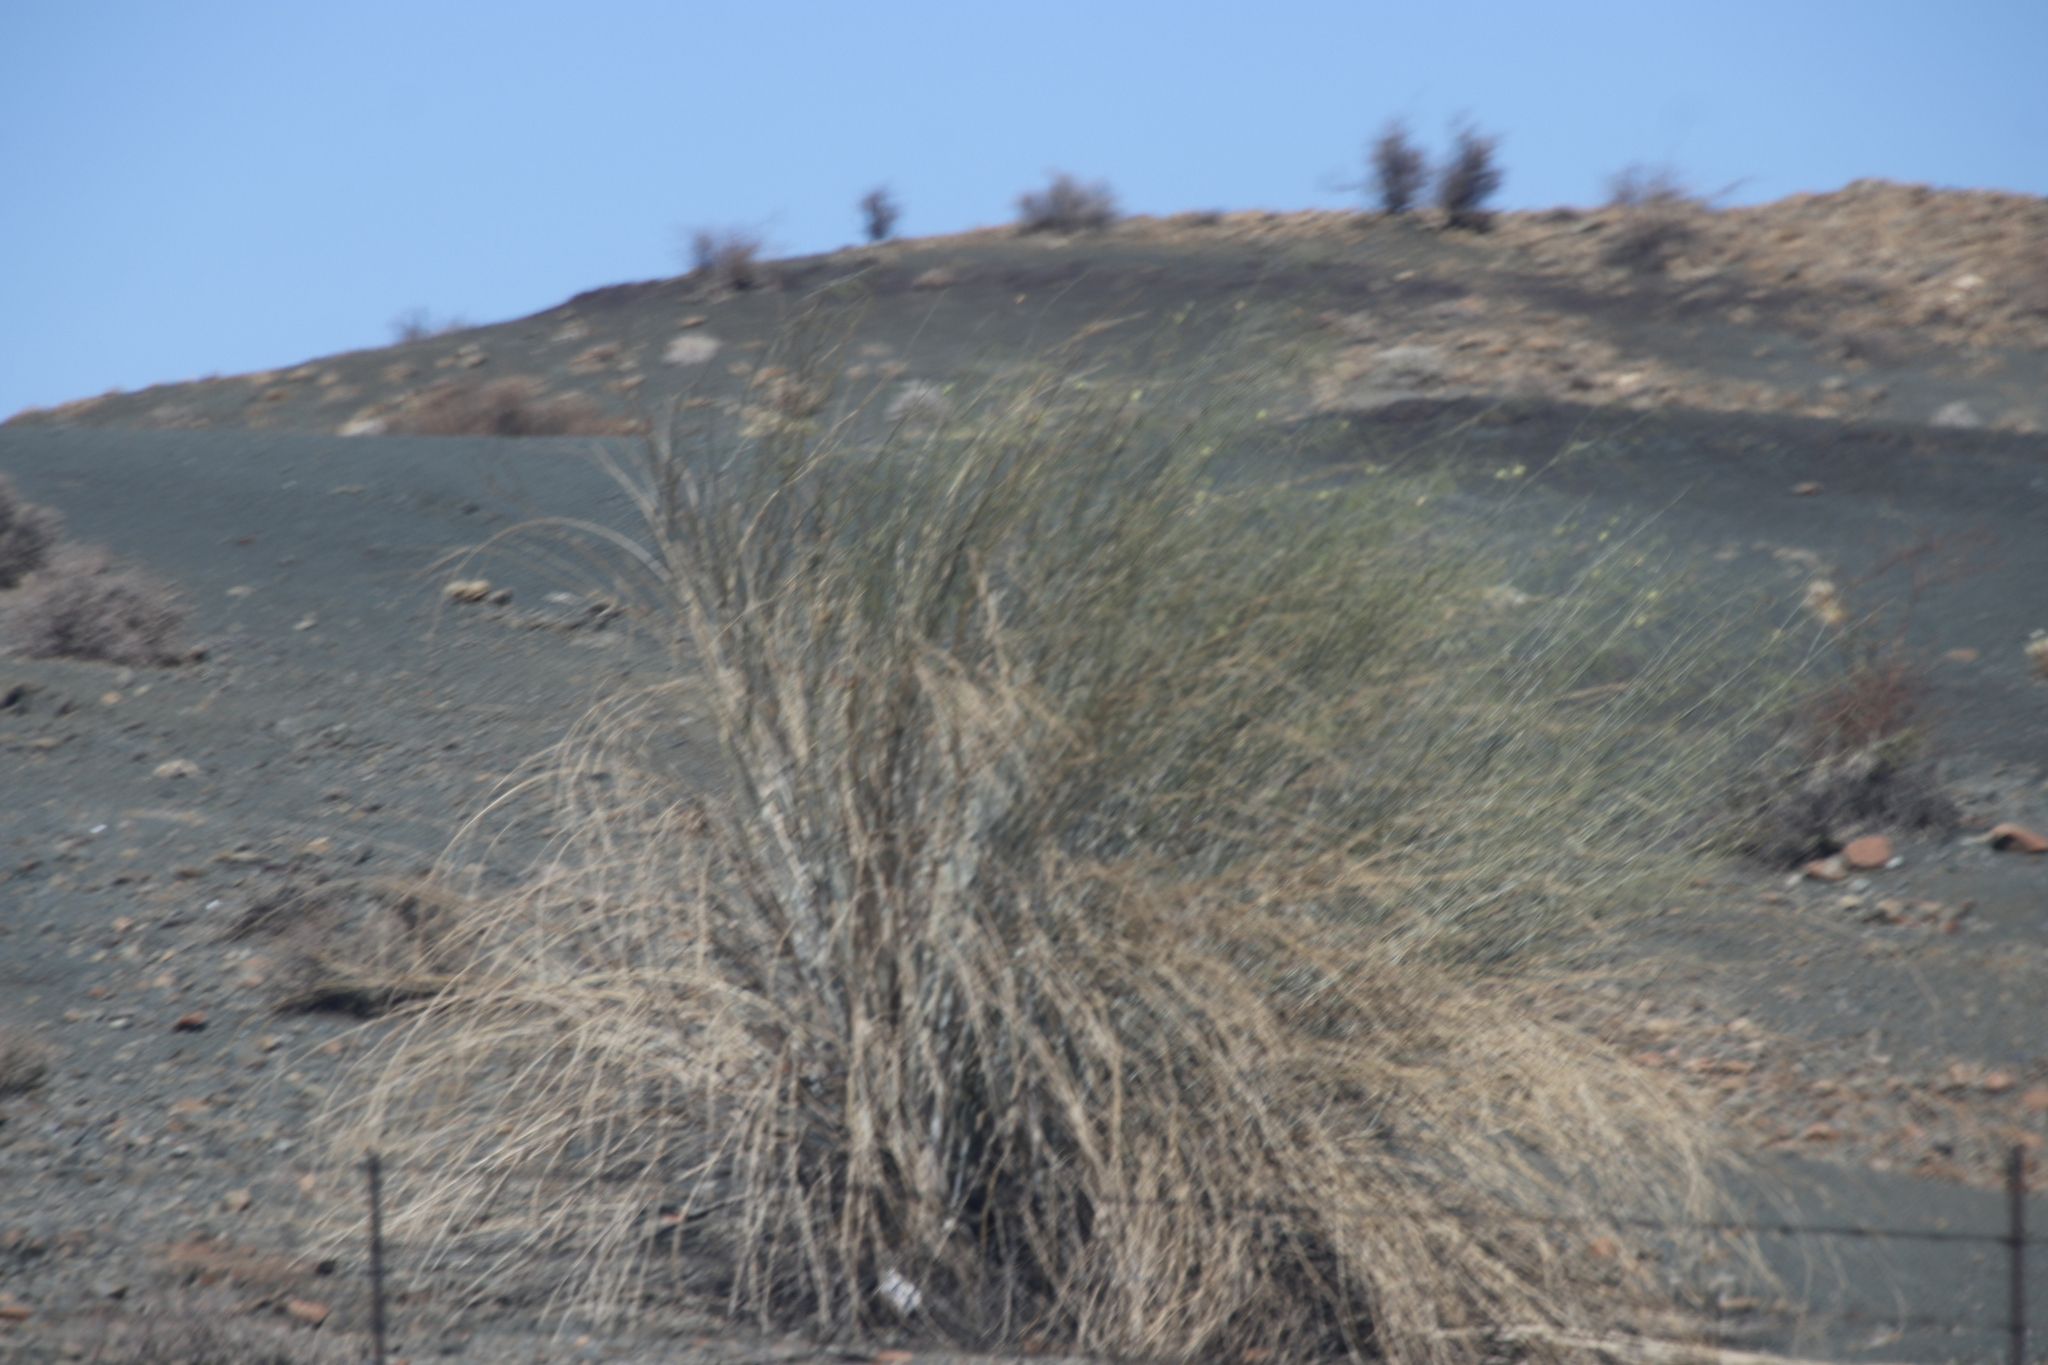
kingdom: Plantae
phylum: Tracheophyta
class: Magnoliopsida
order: Gentianales
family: Apocynaceae
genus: Gomphocarpus
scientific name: Gomphocarpus filiformis
